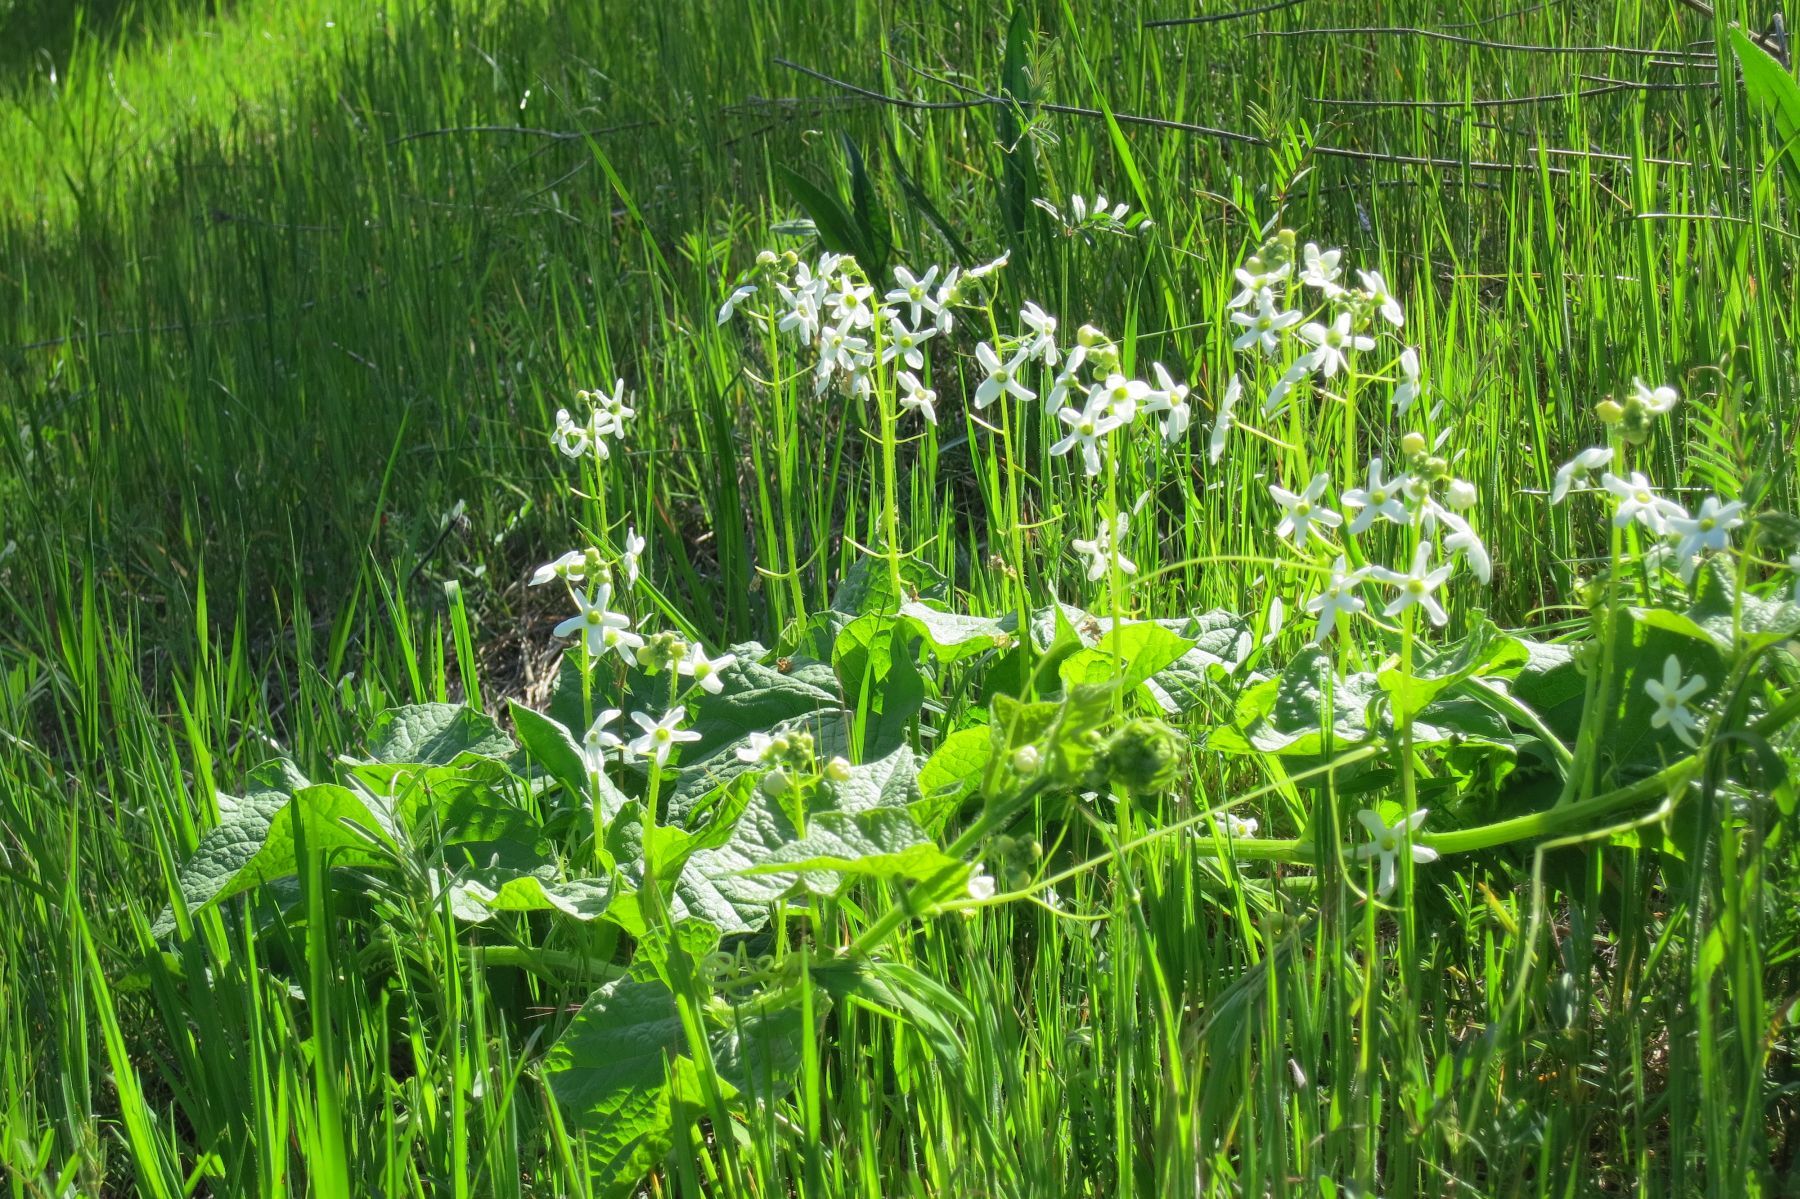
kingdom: Plantae
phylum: Tracheophyta
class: Magnoliopsida
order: Cucurbitales
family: Cucurbitaceae
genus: Marah
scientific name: Marah oregana
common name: Coastal manroot
